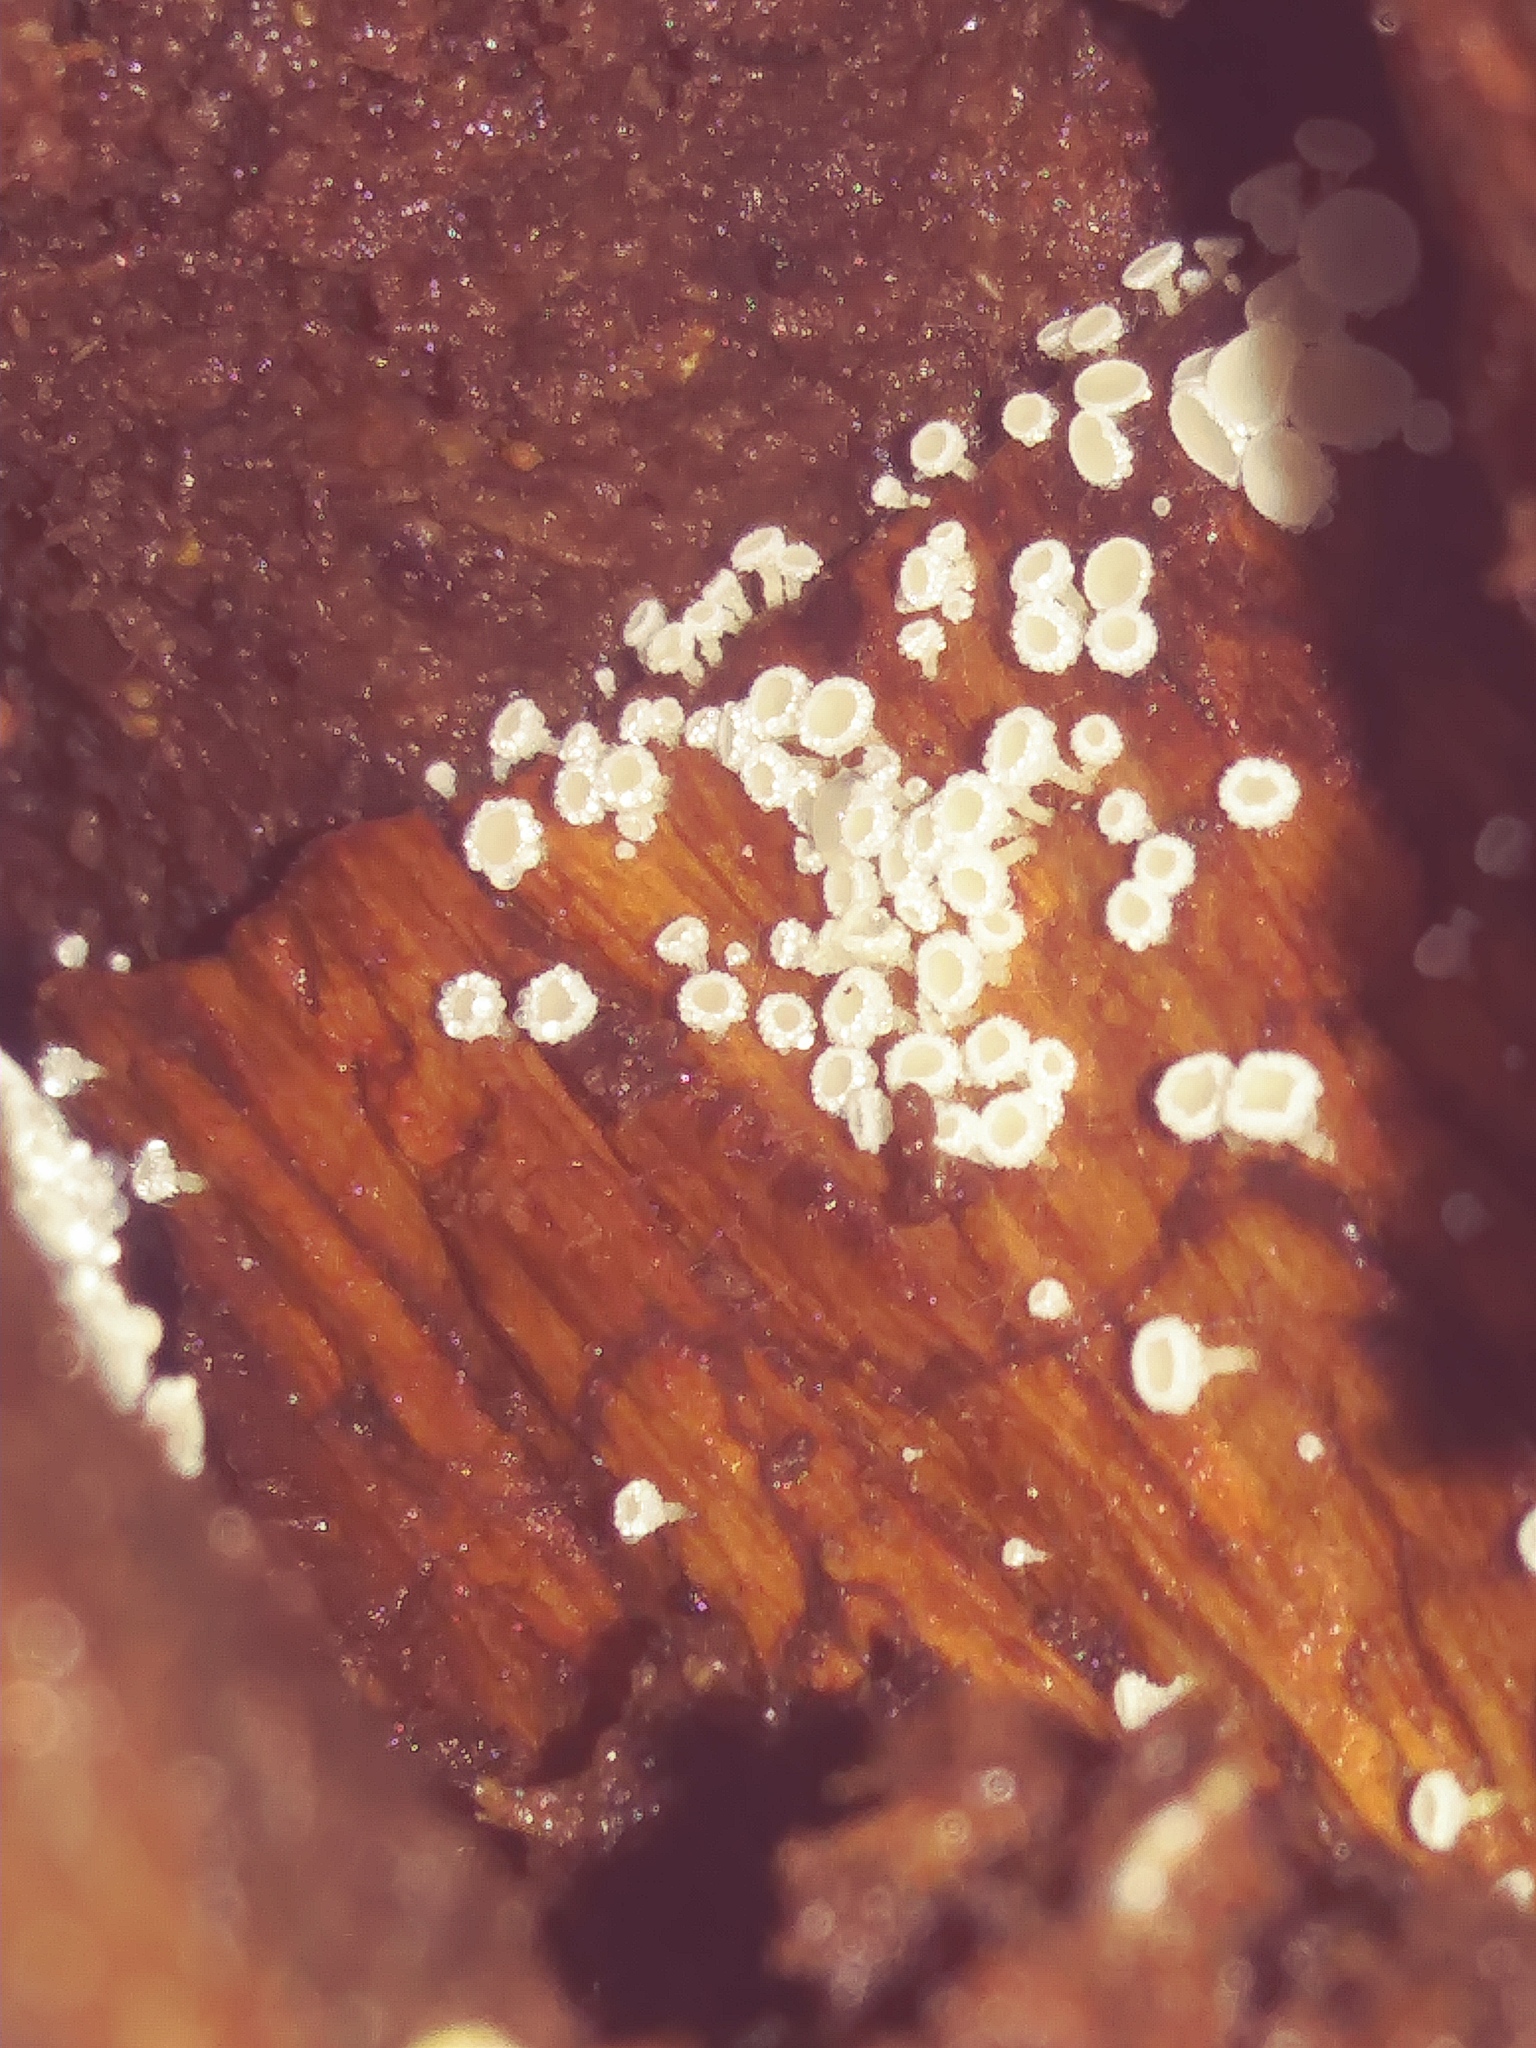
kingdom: Fungi
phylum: Ascomycota
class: Leotiomycetes
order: Helotiales
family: Lachnaceae
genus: Lachnum
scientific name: Lachnum virgineum
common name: Snowy disco
